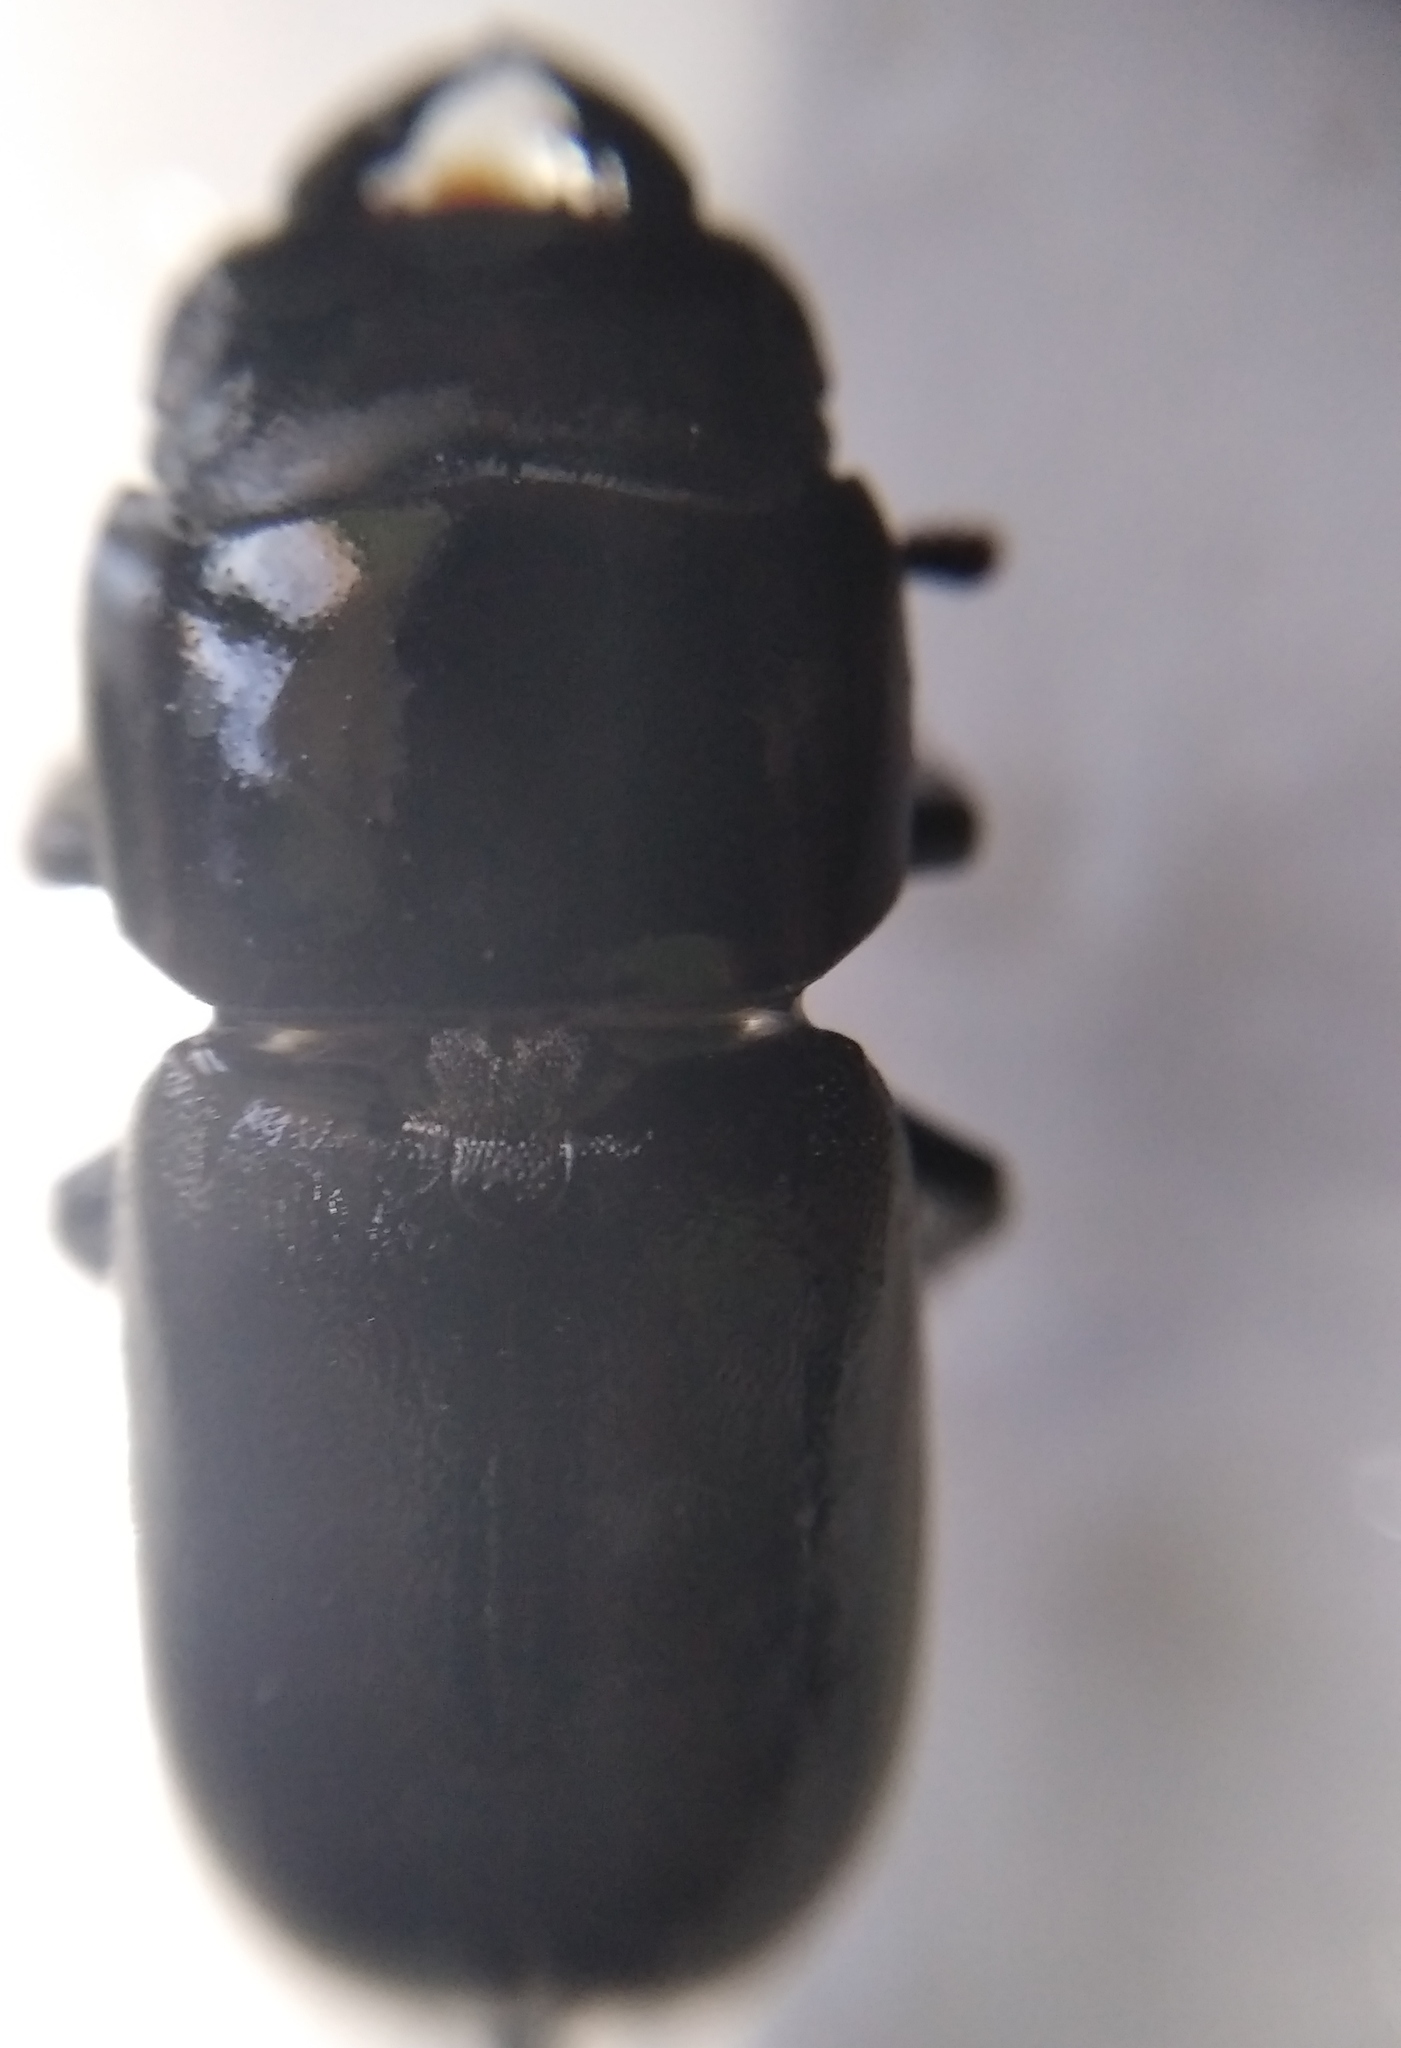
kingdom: Animalia
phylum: Arthropoda
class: Insecta
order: Coleoptera
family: Lucanidae
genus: Dorcus
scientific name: Dorcus parallelipipedus
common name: Lesser stag beetle
